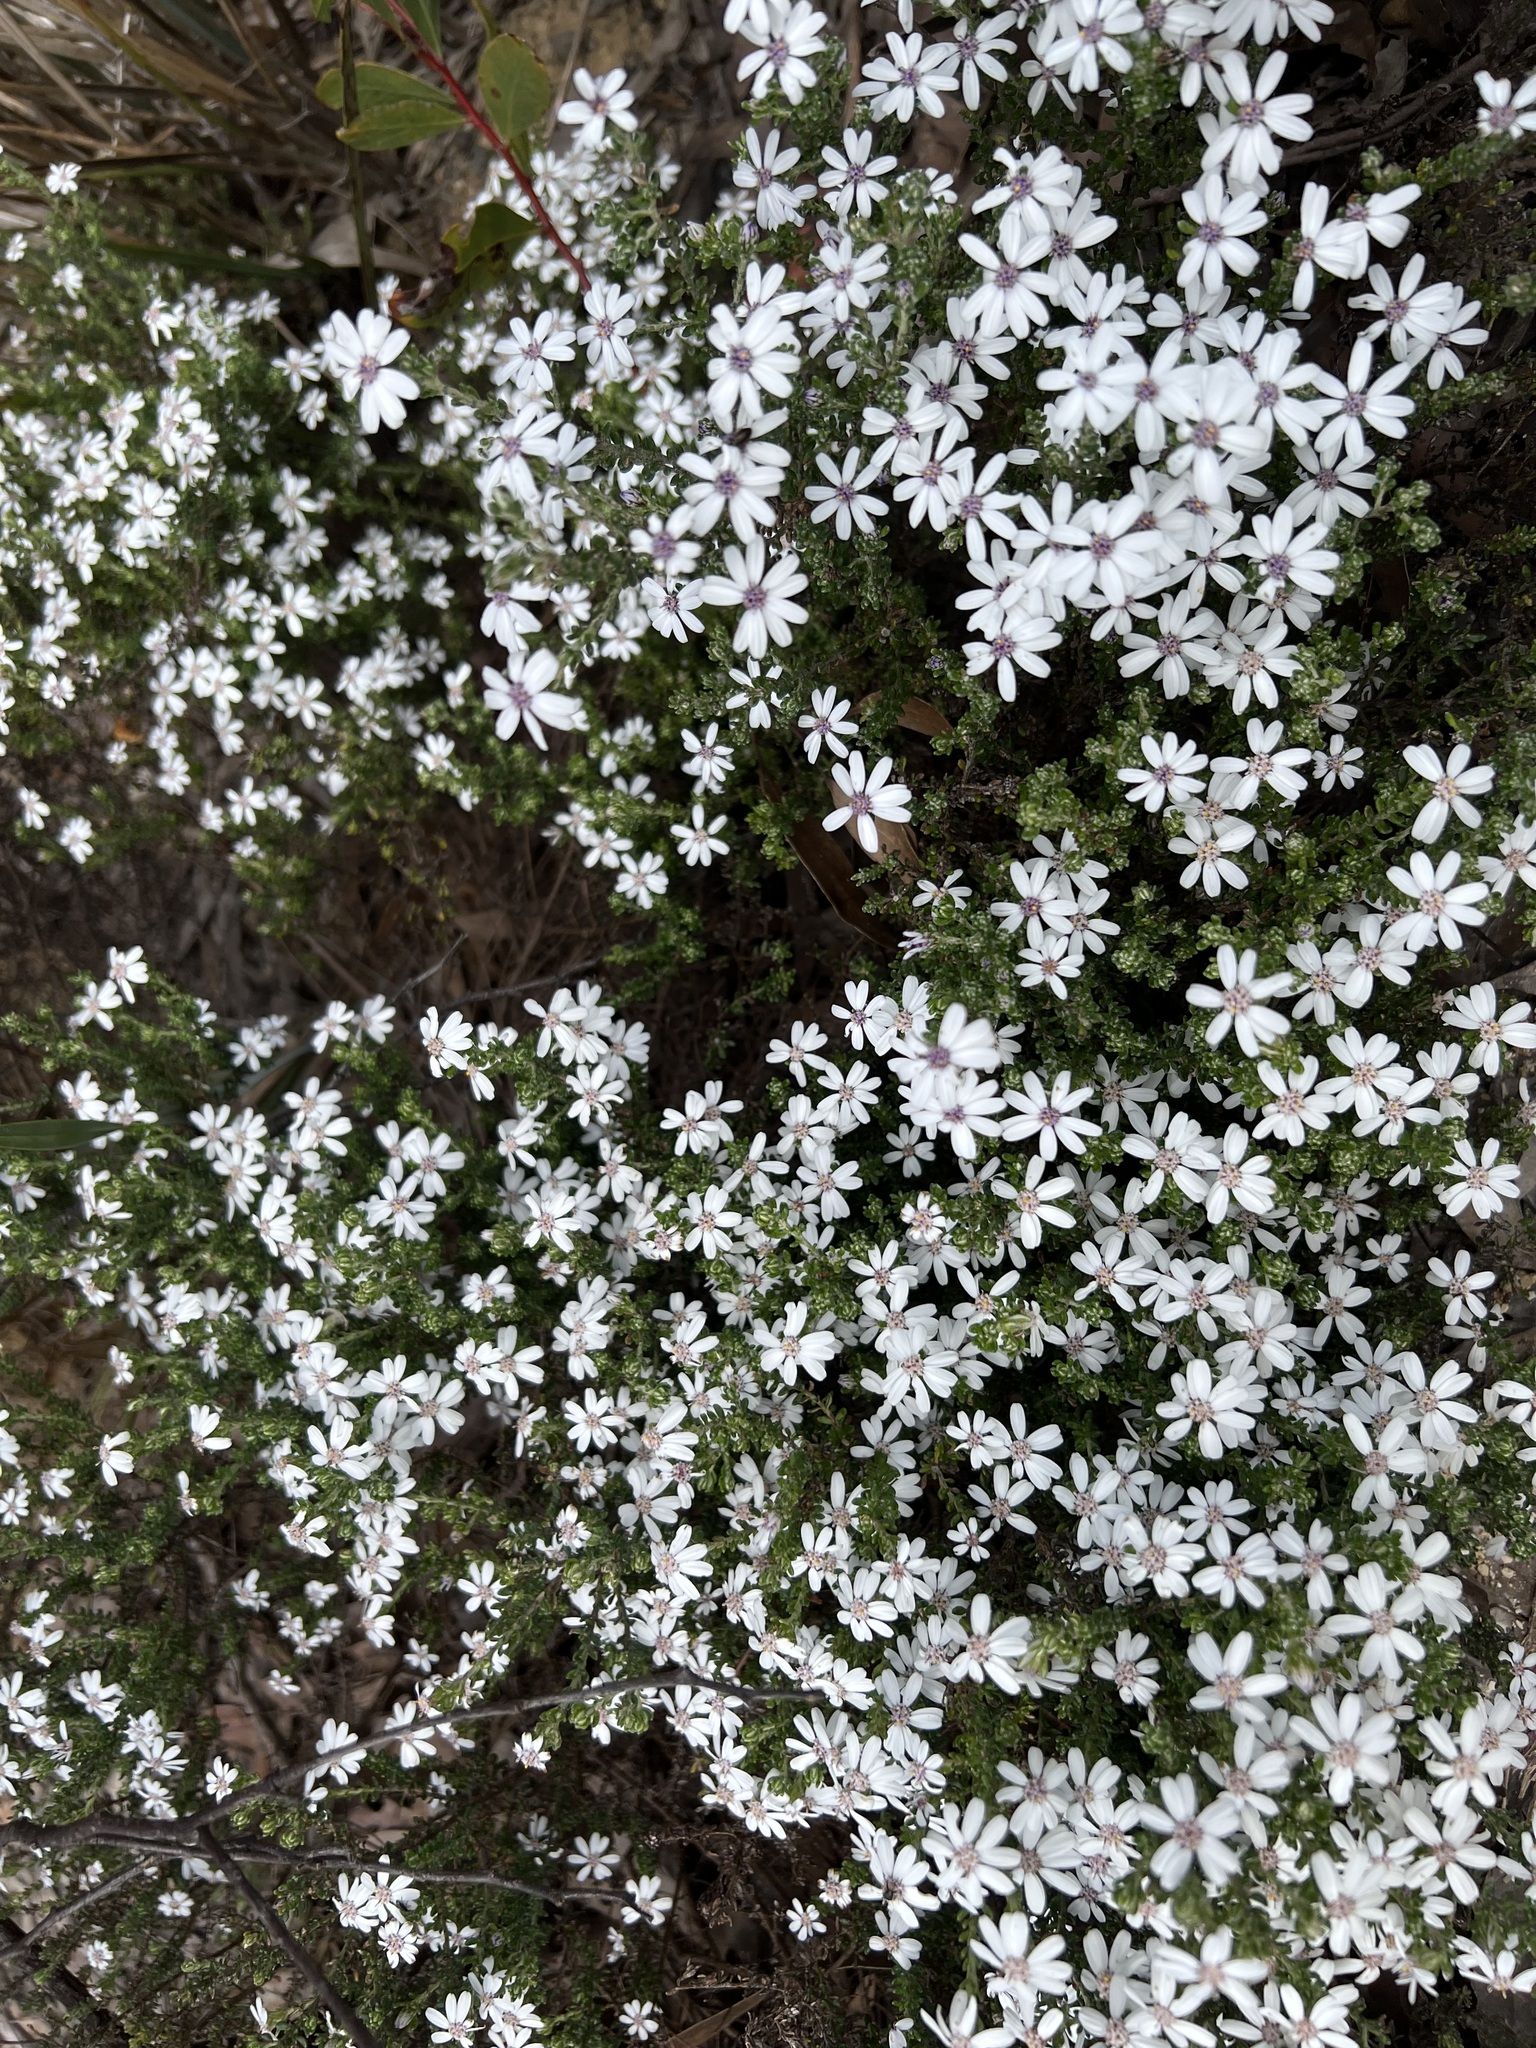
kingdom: Plantae
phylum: Tracheophyta
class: Magnoliopsida
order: Asterales
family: Asteraceae
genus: Olearia
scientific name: Olearia minor
